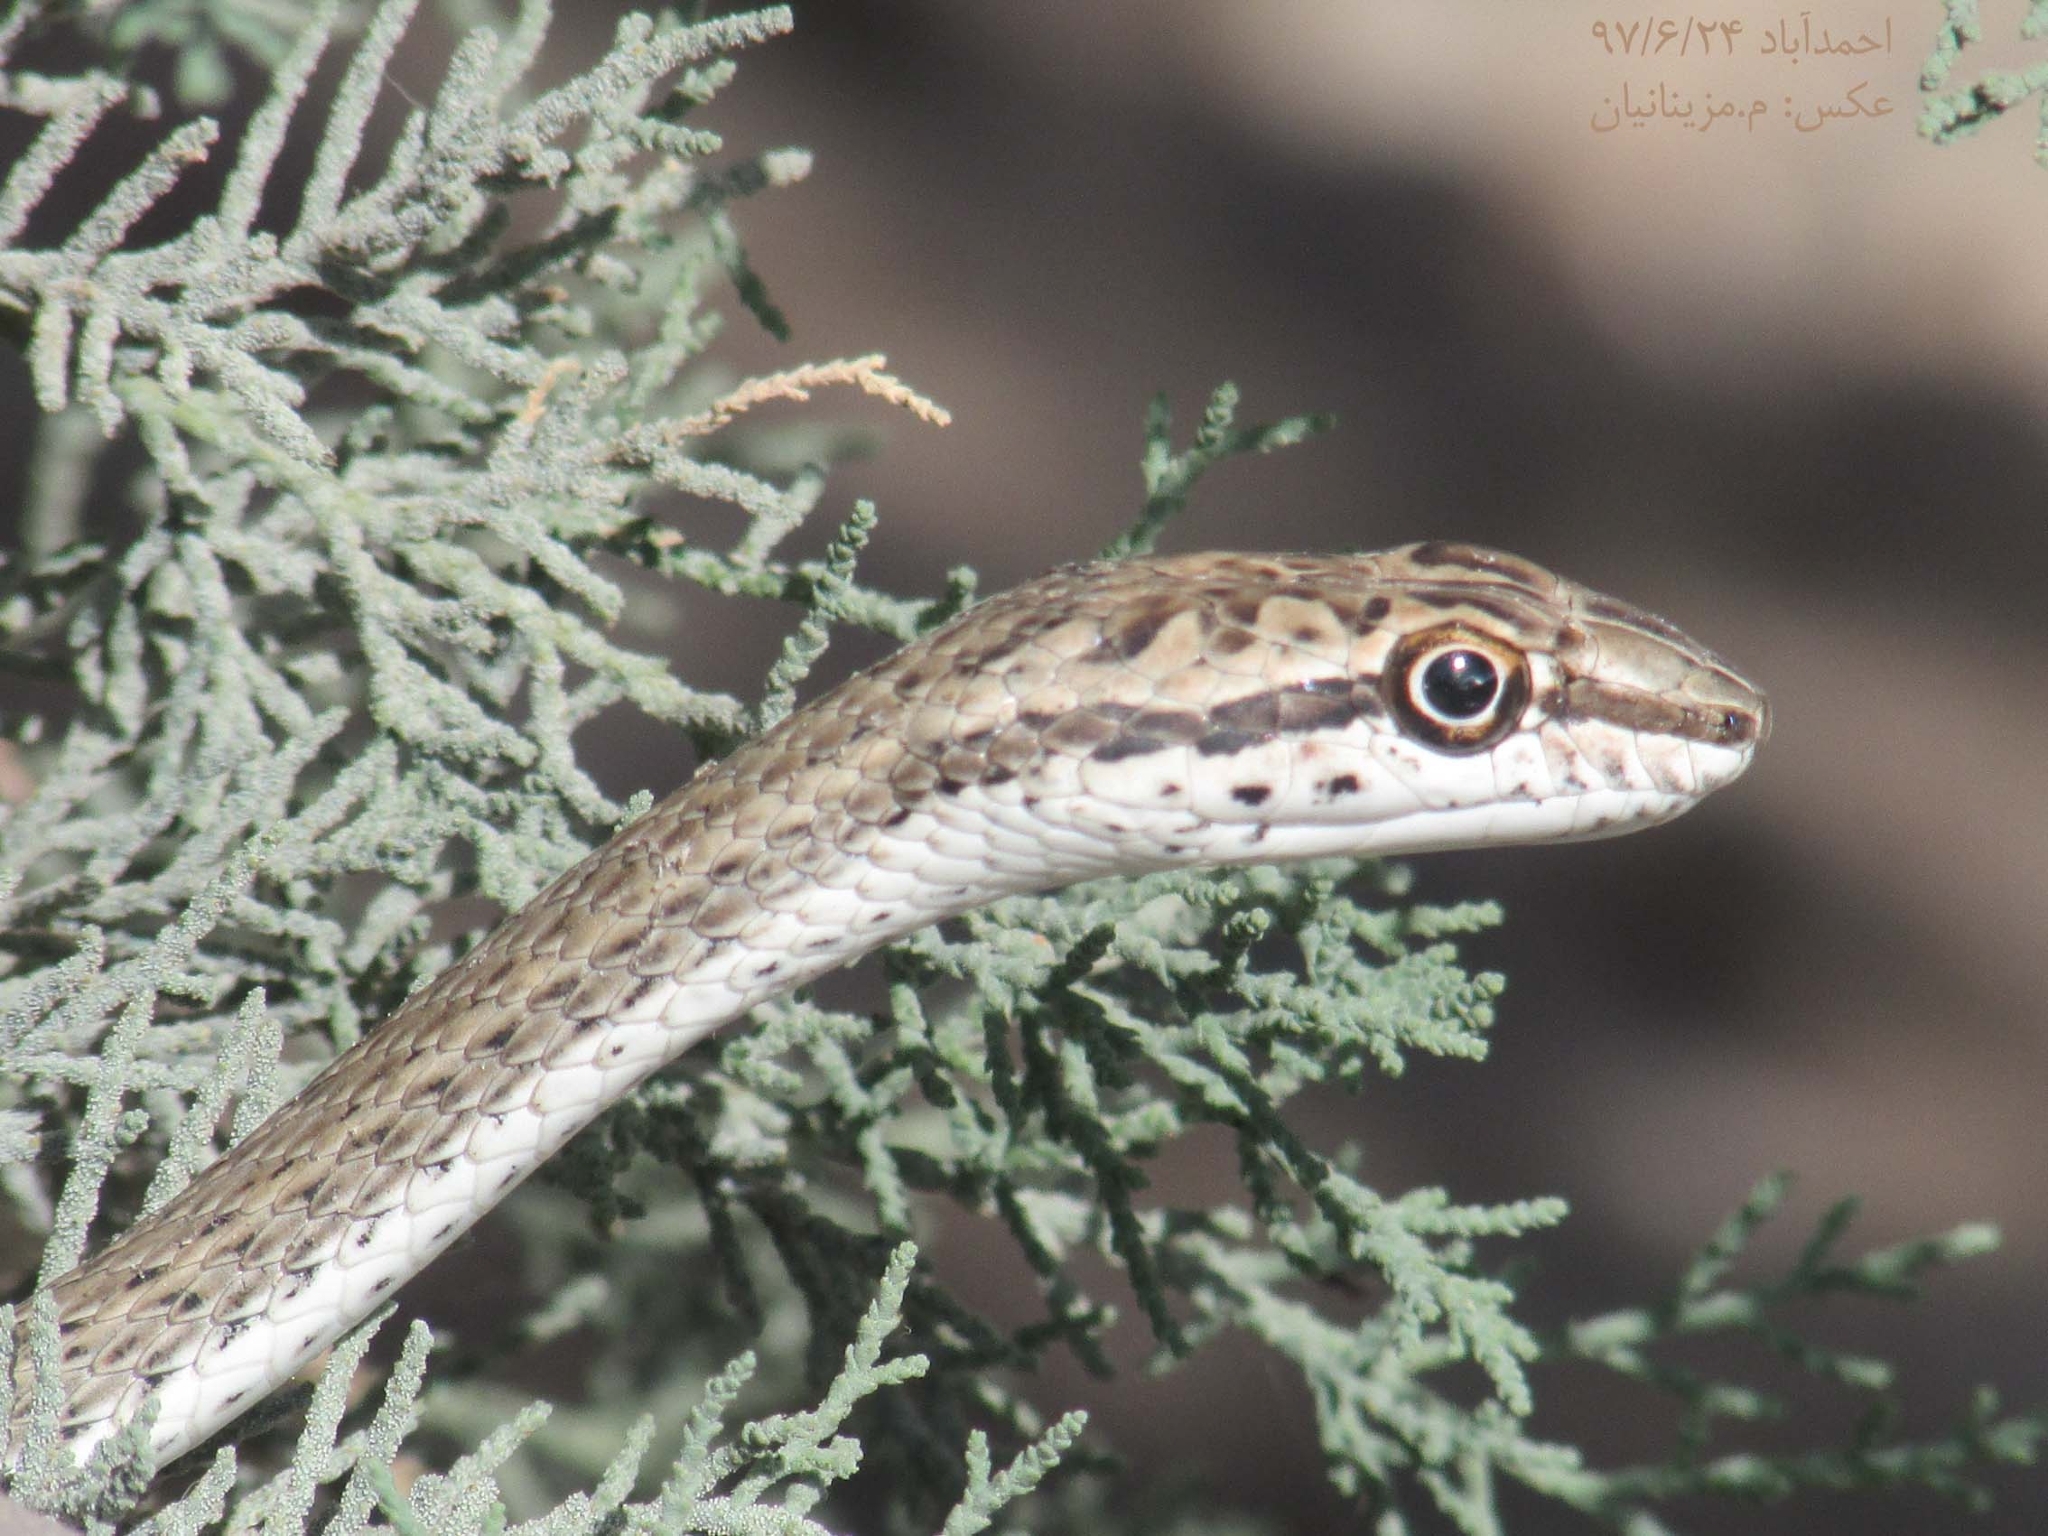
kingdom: Animalia
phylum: Chordata
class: Squamata
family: Psammophiidae
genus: Psammophis
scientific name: Psammophis schokari
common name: Schokari sand racer
